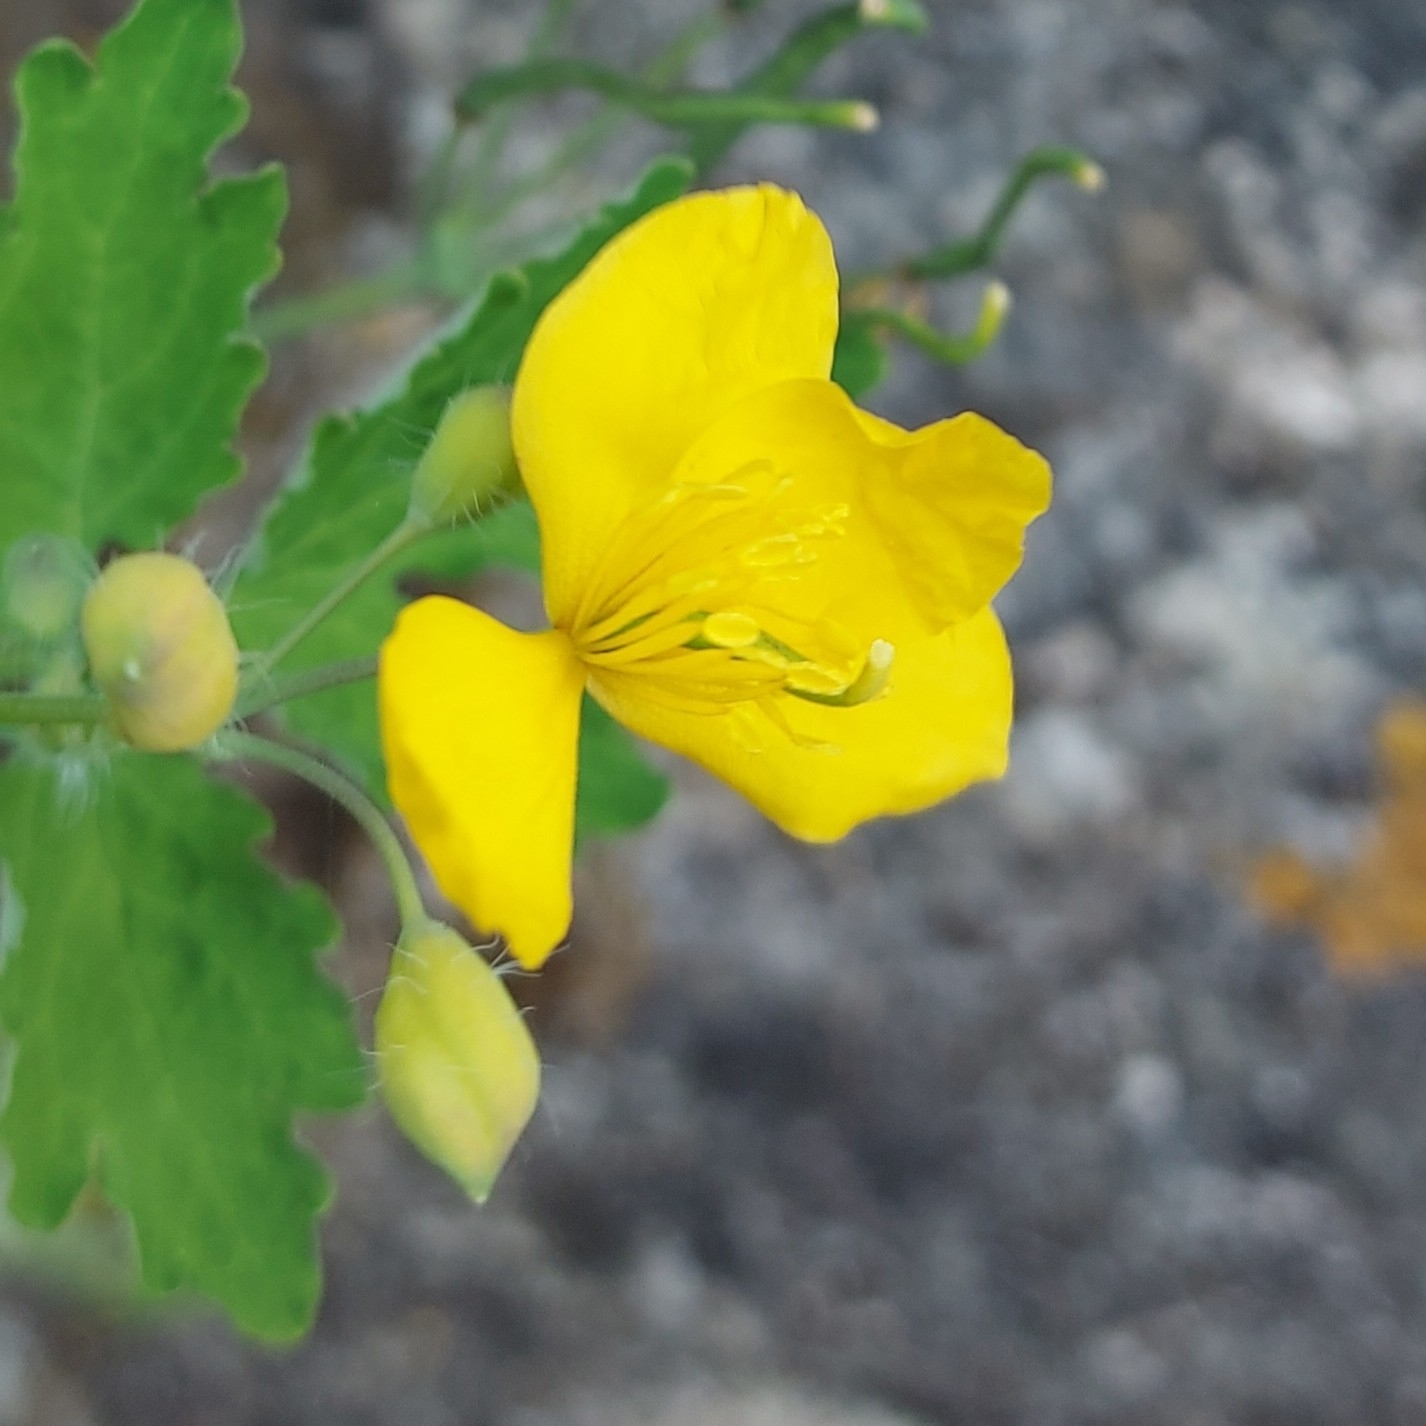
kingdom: Plantae
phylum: Tracheophyta
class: Magnoliopsida
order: Ranunculales
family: Papaveraceae
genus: Chelidonium
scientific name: Chelidonium majus
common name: Greater celandine
